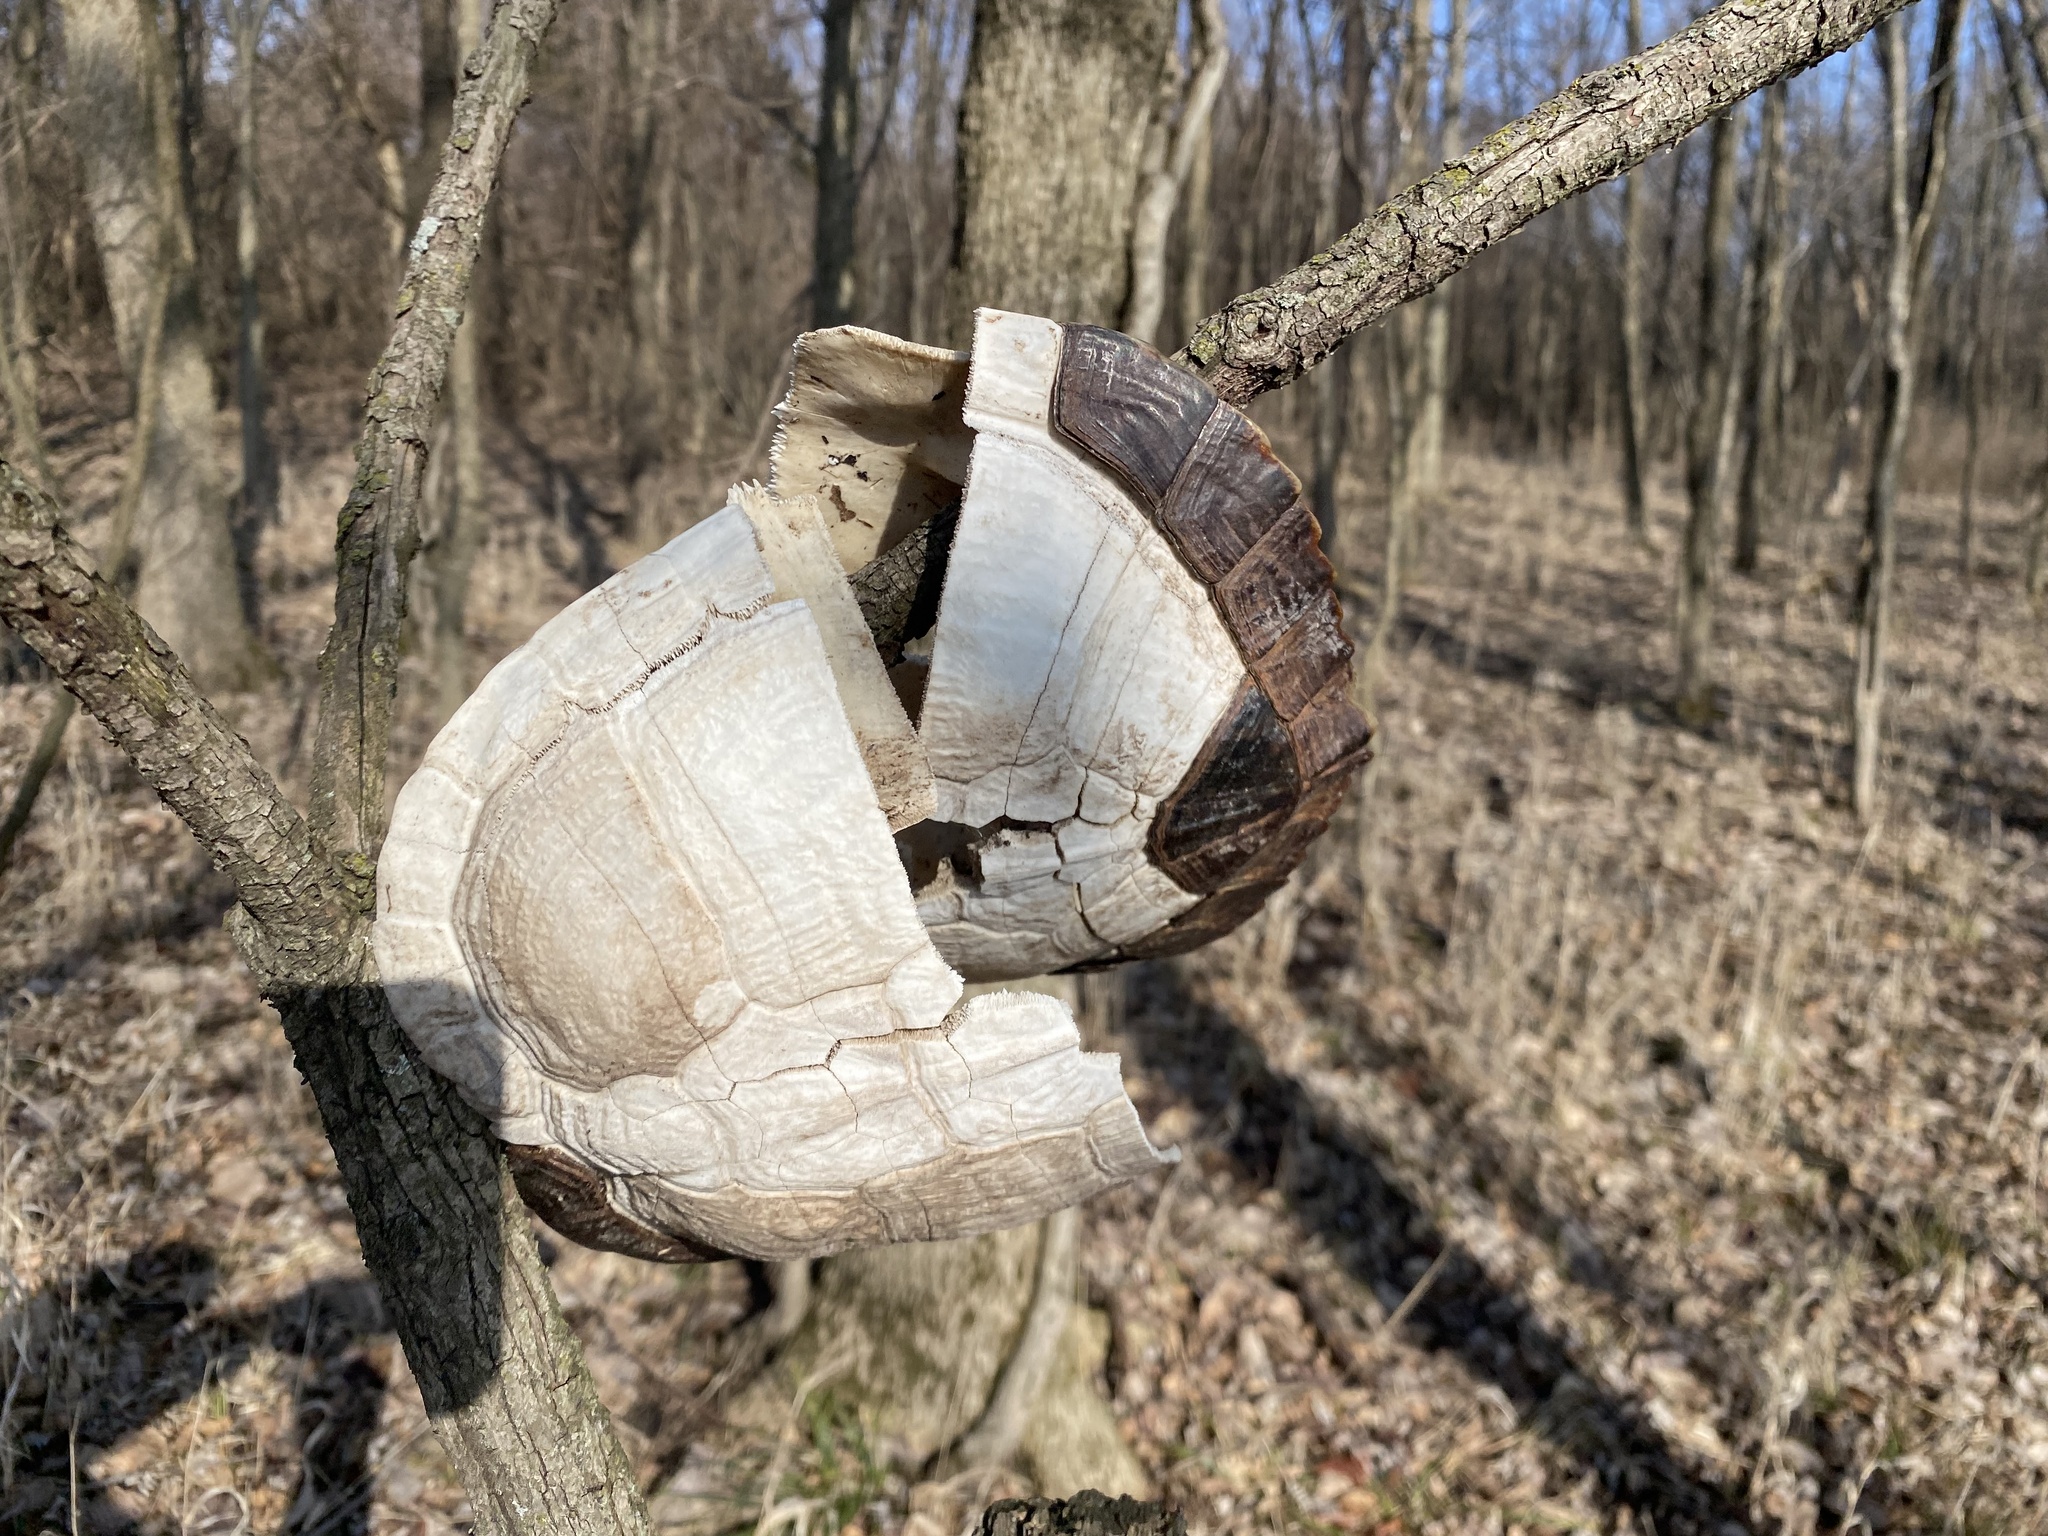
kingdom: Animalia
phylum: Chordata
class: Testudines
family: Emydidae
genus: Trachemys
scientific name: Trachemys scripta
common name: Slider
